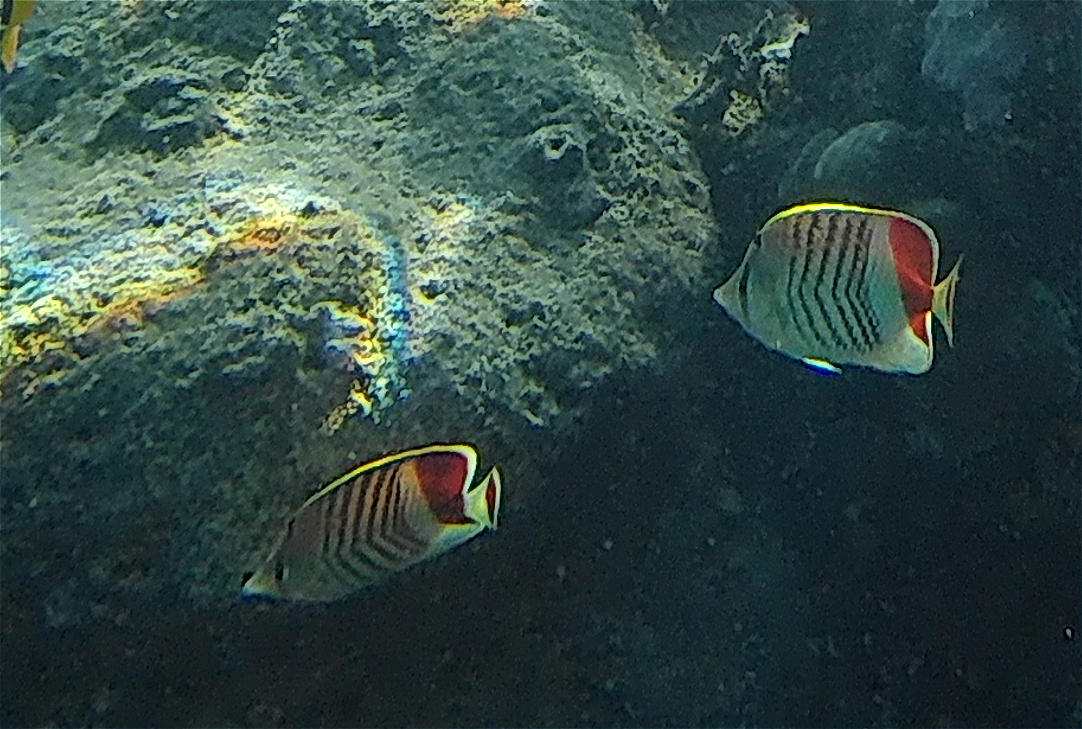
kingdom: Animalia
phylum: Chordata
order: Perciformes
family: Chaetodontidae
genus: Chaetodon
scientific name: Chaetodon paucifasciatus
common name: Crown butterflyfish
